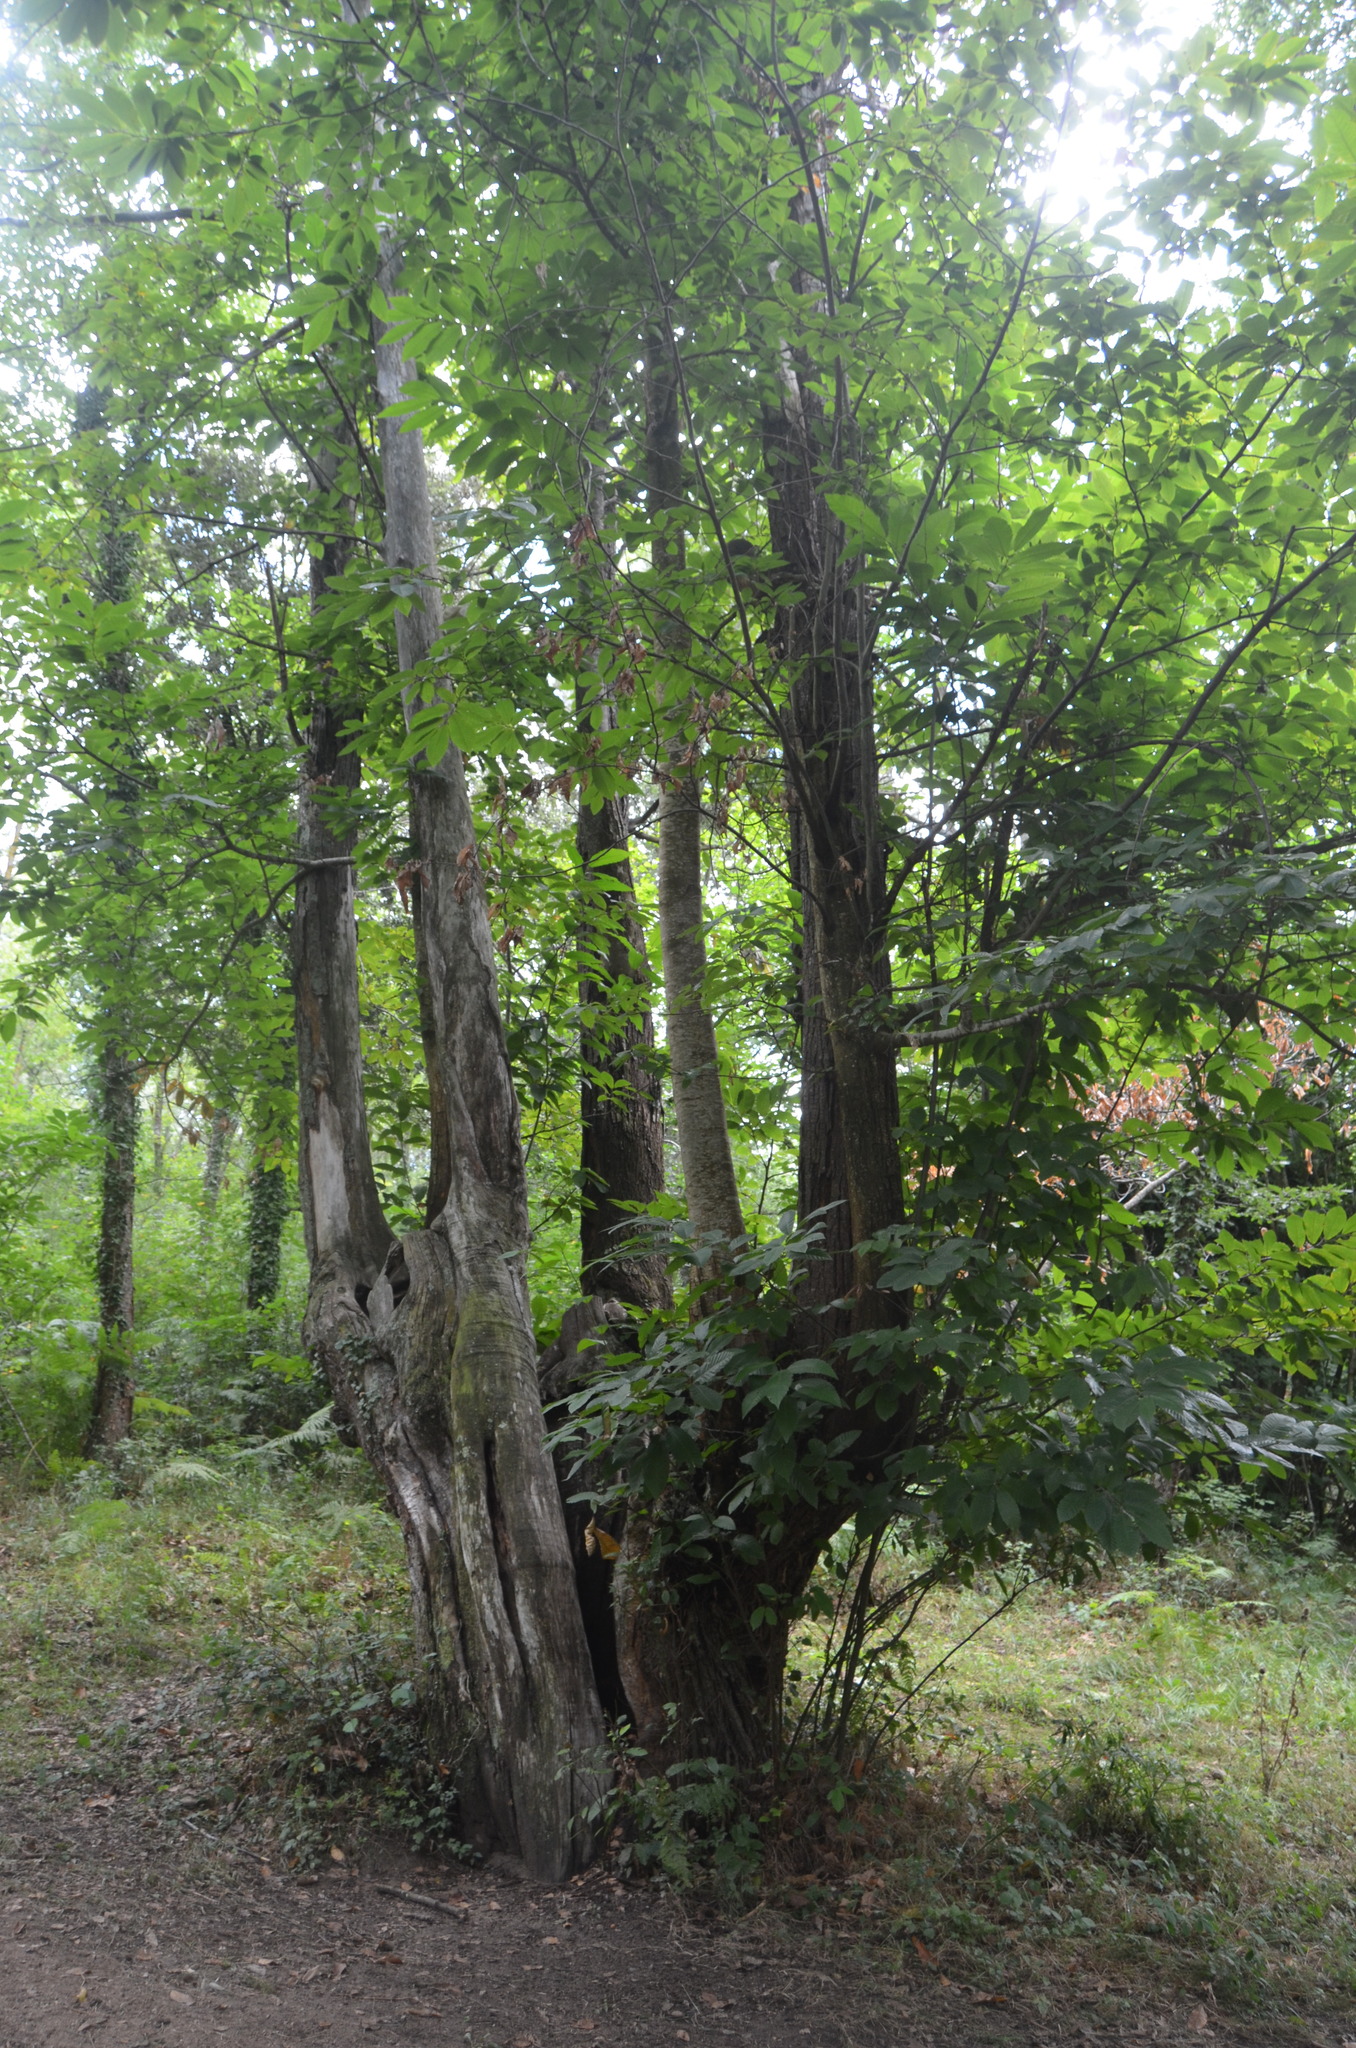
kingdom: Plantae
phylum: Tracheophyta
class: Magnoliopsida
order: Fagales
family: Fagaceae
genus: Castanea
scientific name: Castanea sativa
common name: Sweet chestnut
